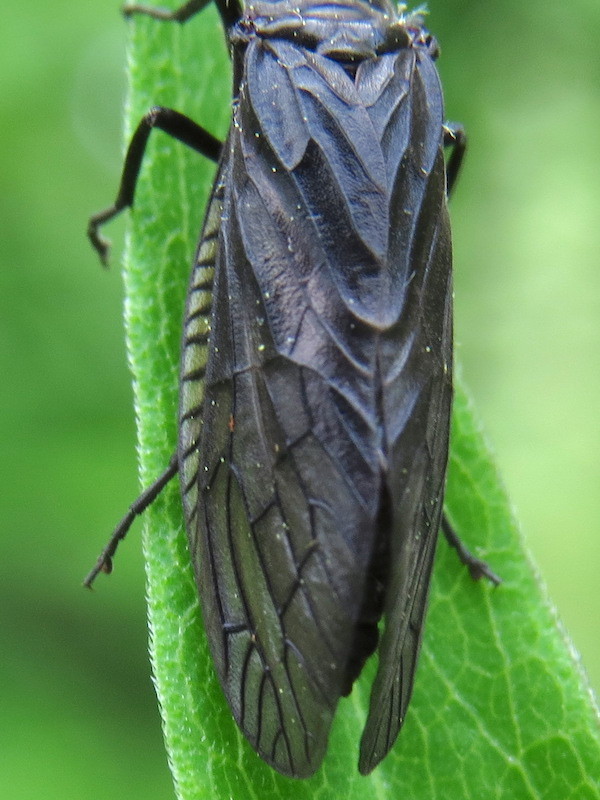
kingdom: Animalia
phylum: Arthropoda
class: Insecta
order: Megaloptera
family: Sialidae
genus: Sialis
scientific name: Sialis
